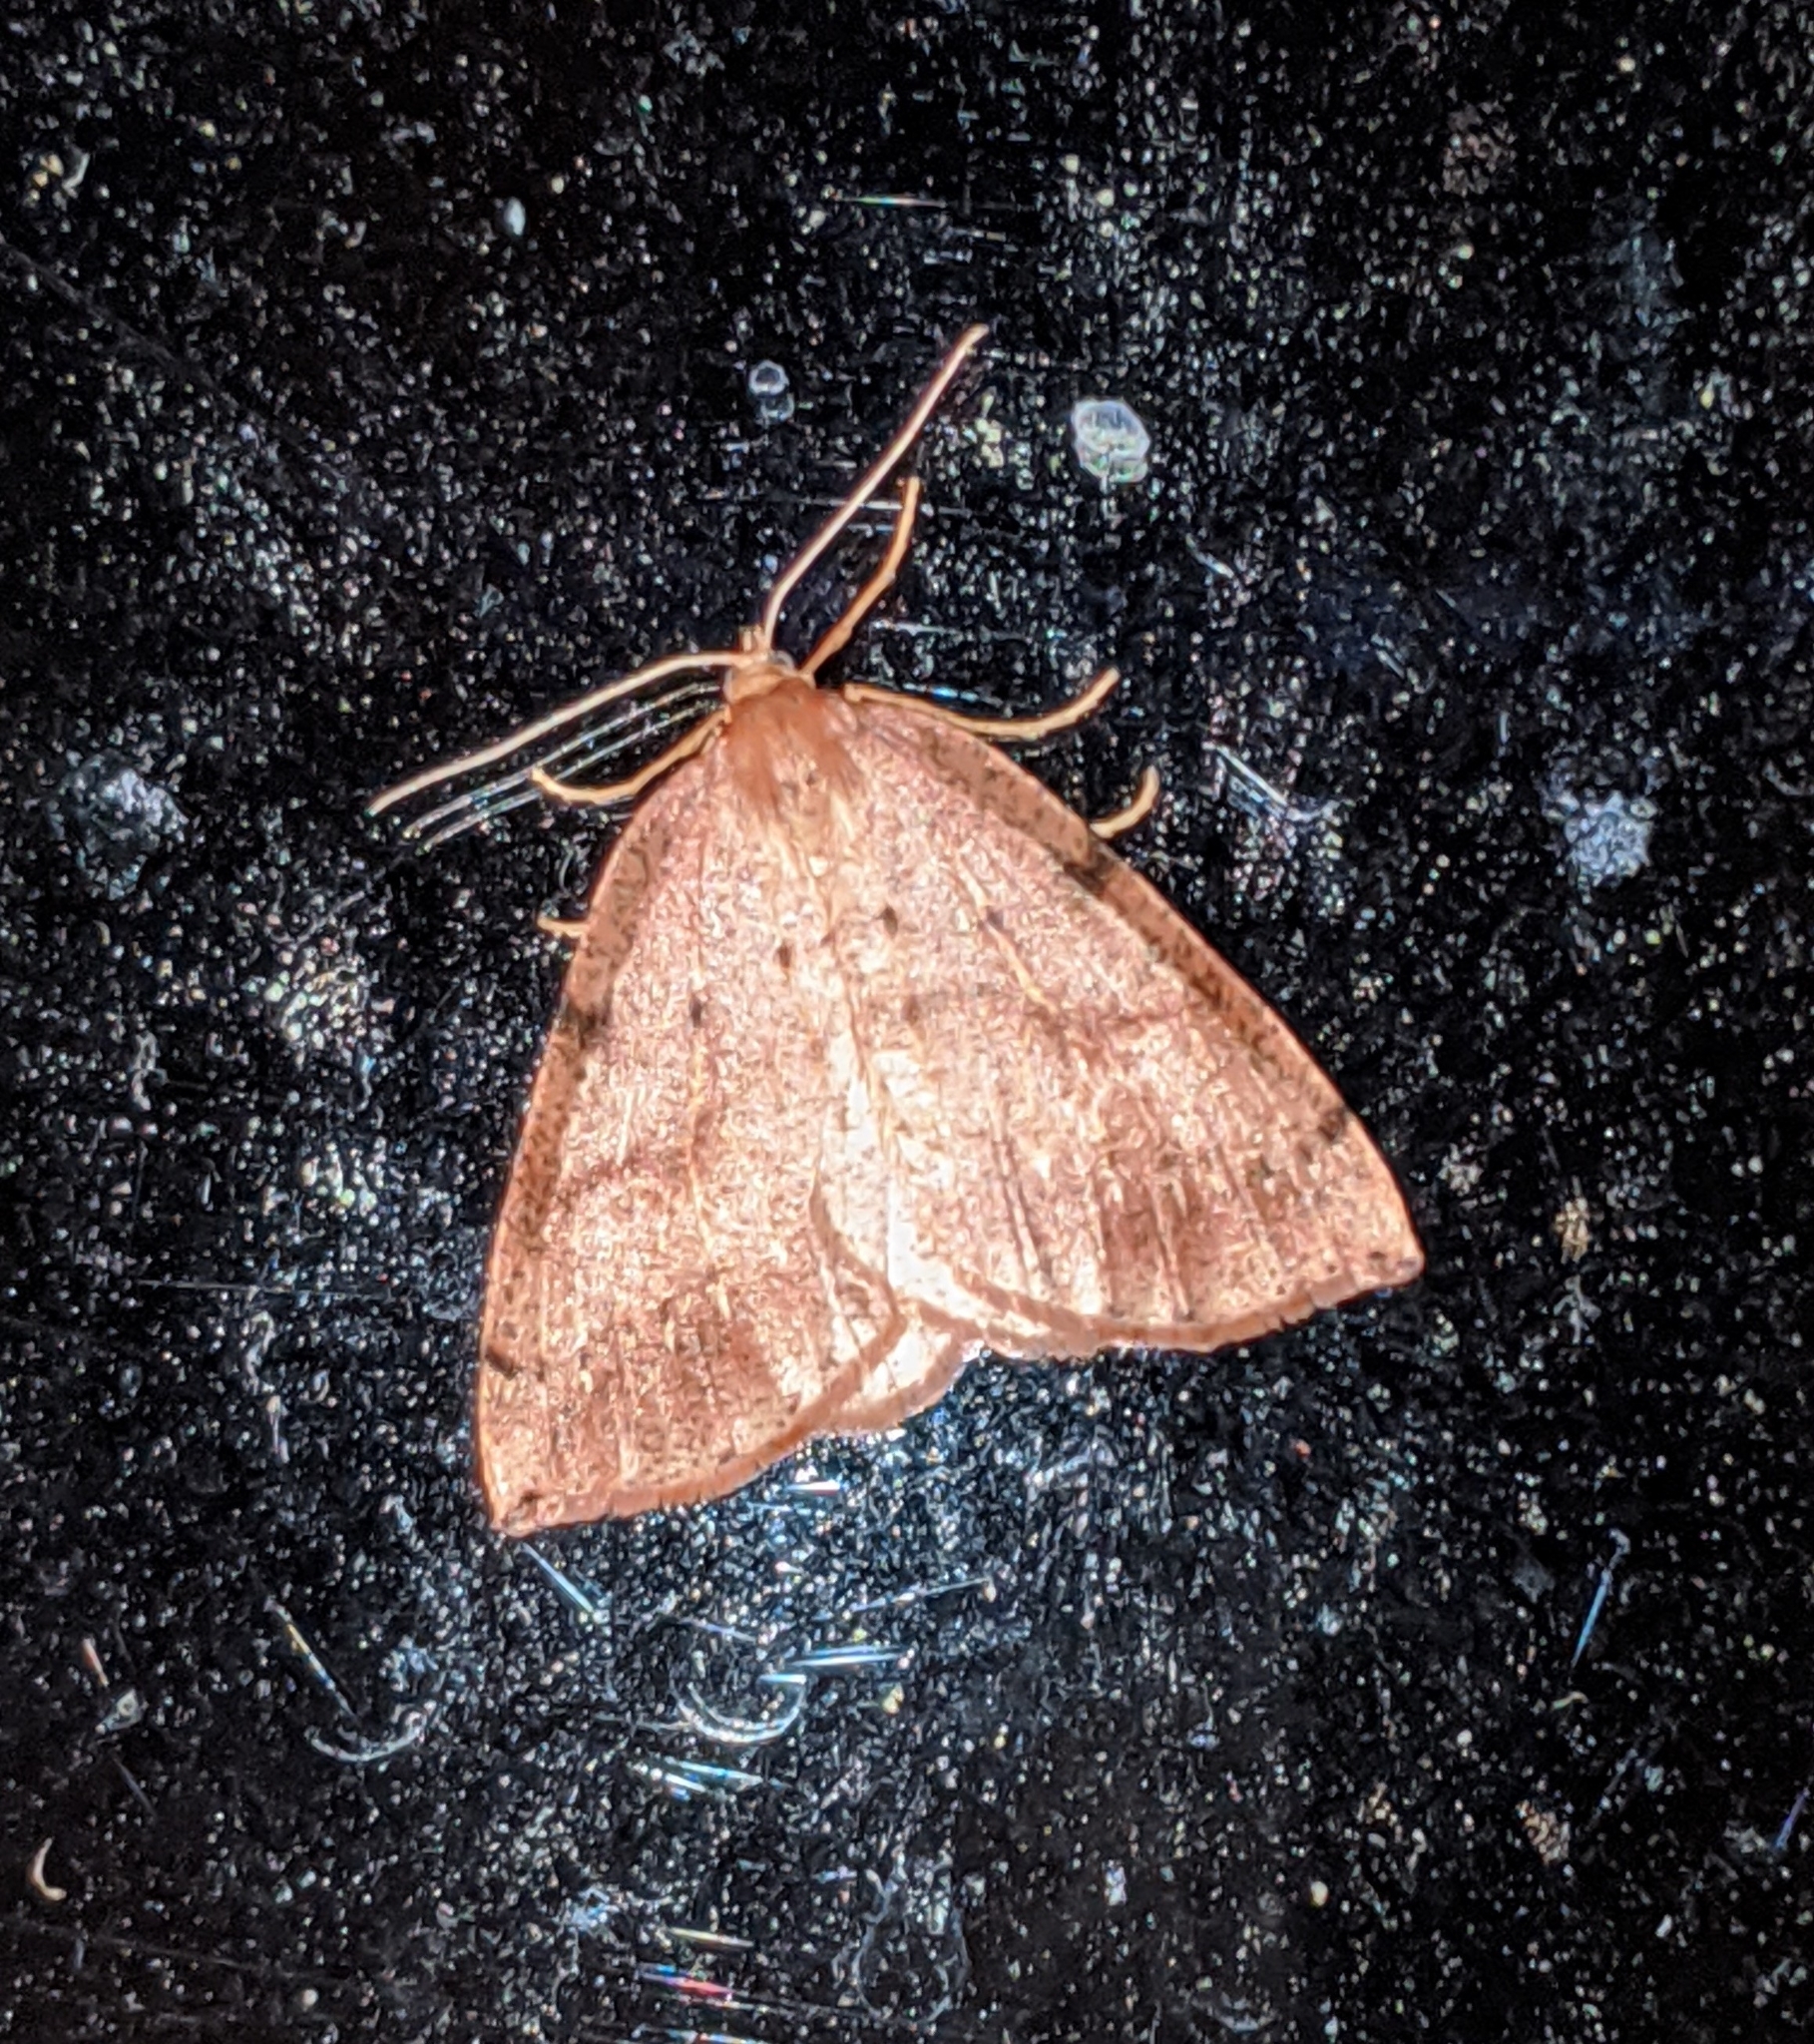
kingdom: Animalia
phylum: Arthropoda
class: Insecta
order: Lepidoptera
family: Geometridae
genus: Thallophaga
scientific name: Thallophaga hyperborea
